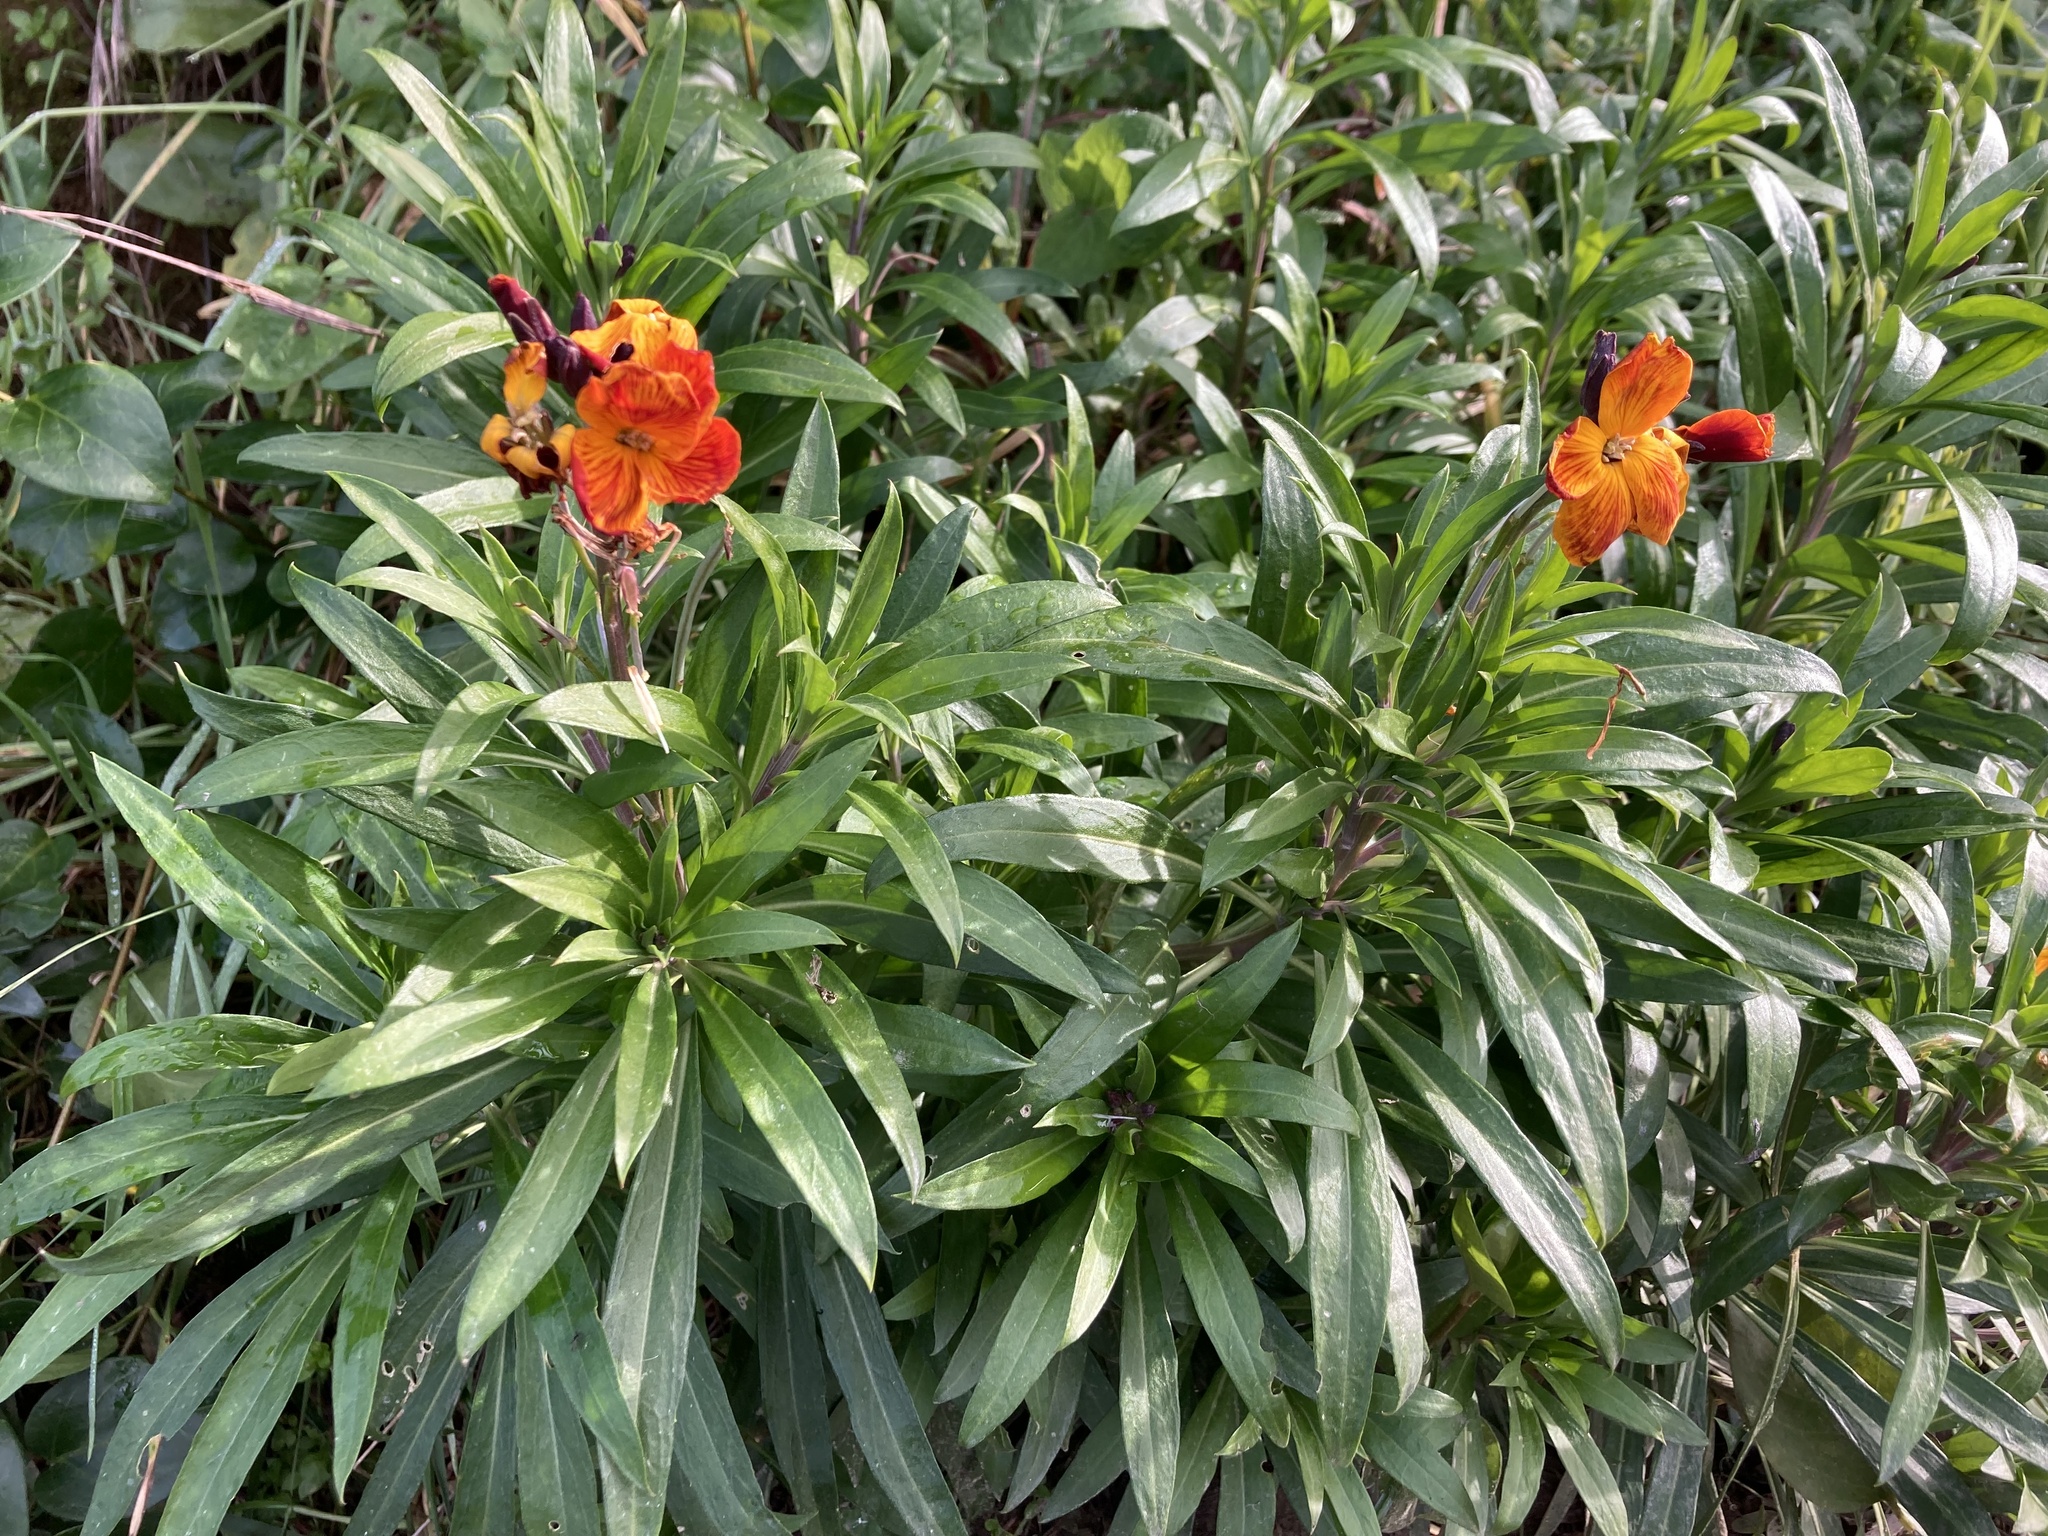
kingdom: Plantae
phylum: Tracheophyta
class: Magnoliopsida
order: Brassicales
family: Brassicaceae
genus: Erysimum
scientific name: Erysimum cheiri
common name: Wallflower
